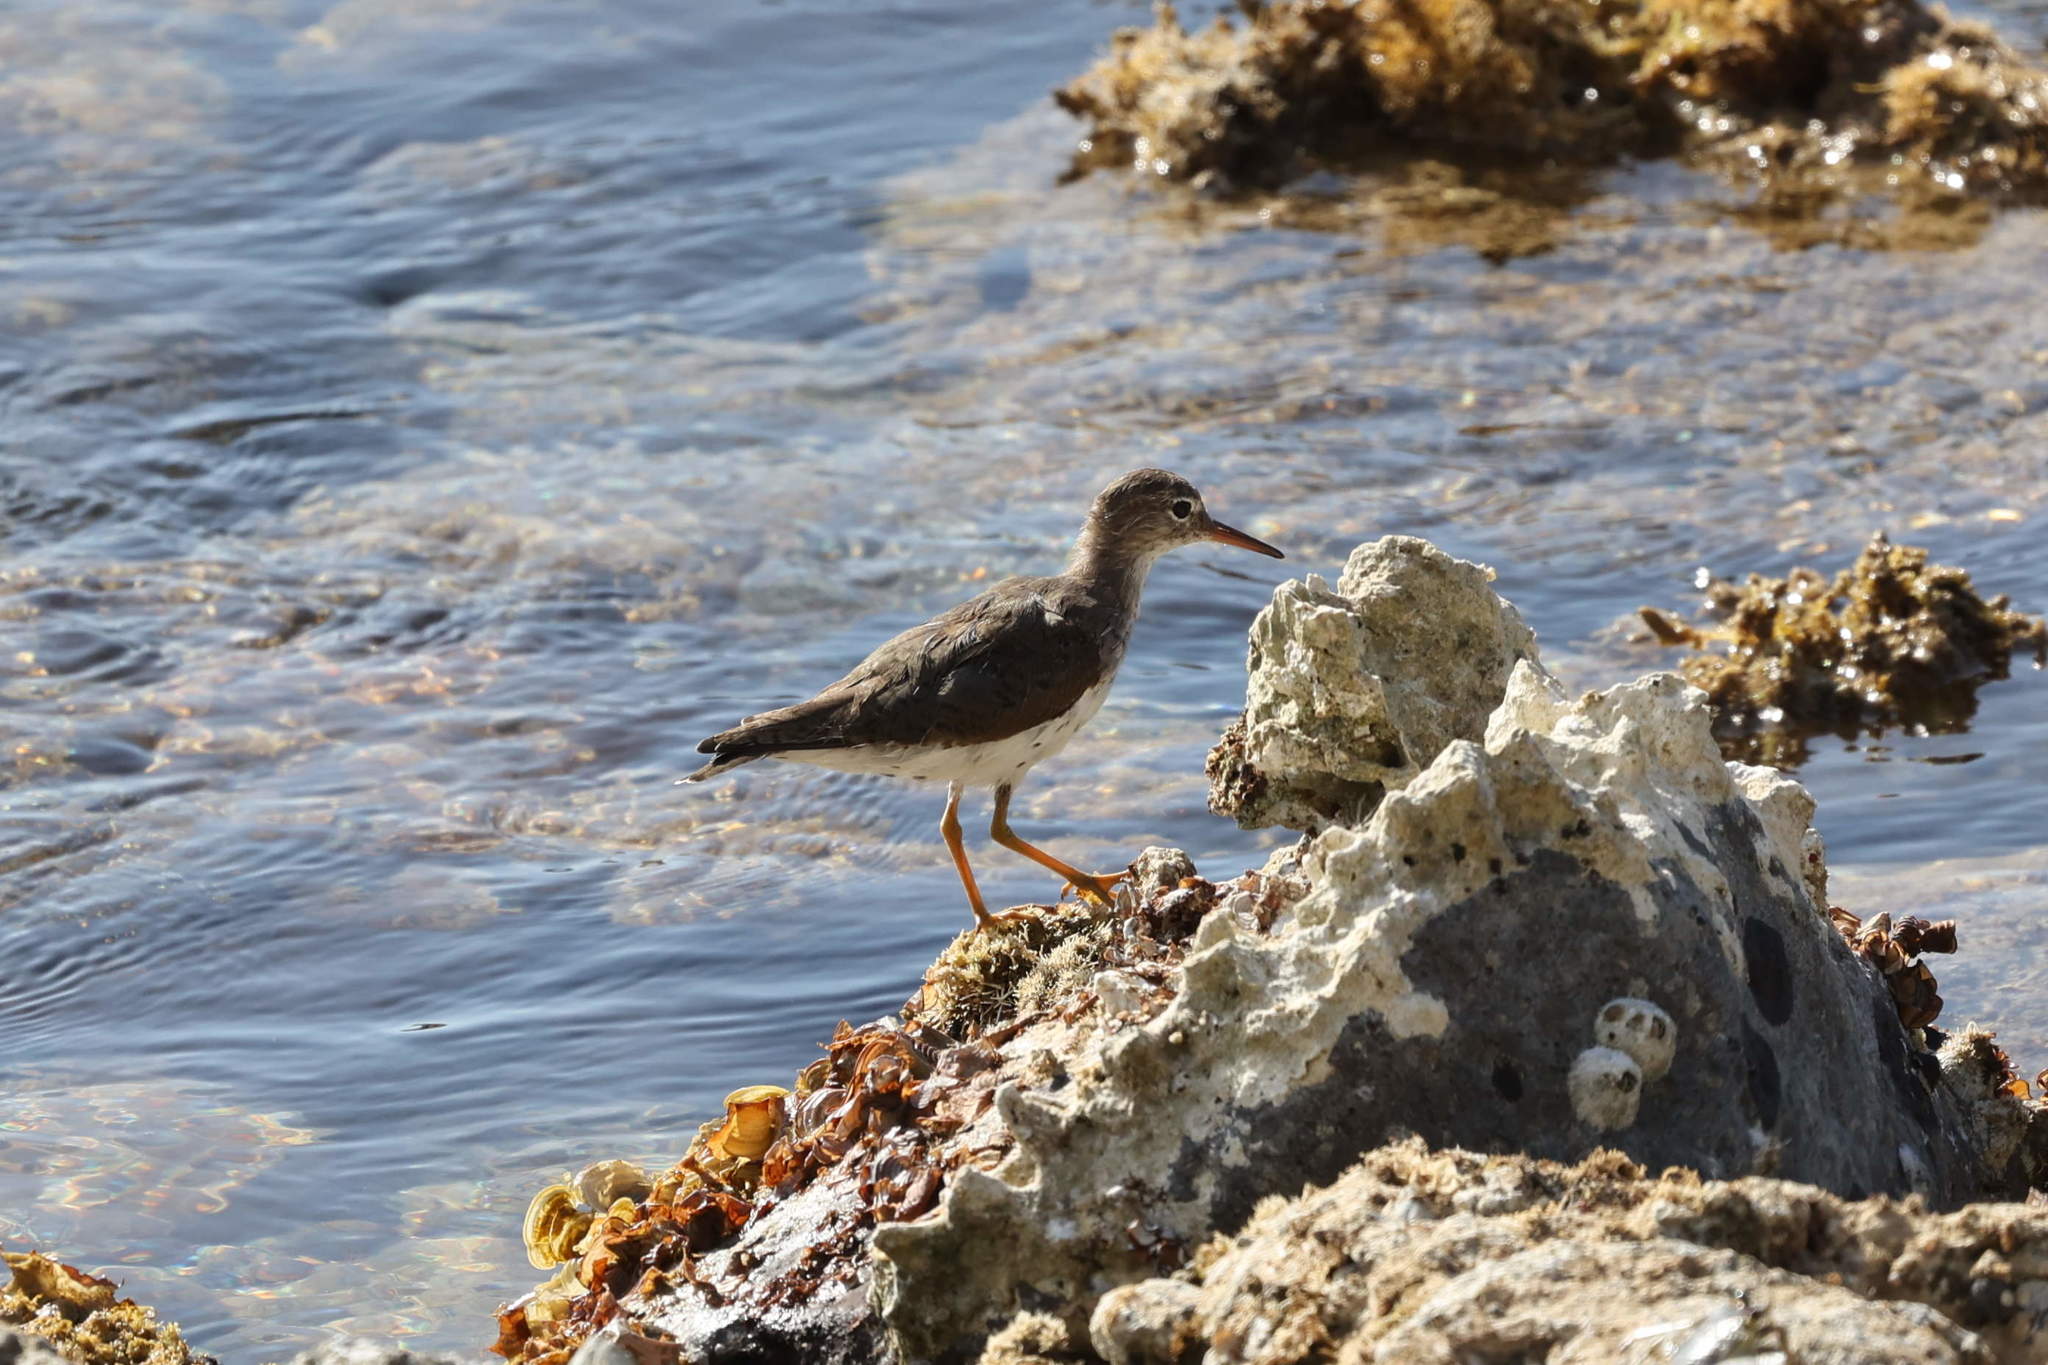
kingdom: Animalia
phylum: Chordata
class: Aves
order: Charadriiformes
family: Scolopacidae
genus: Actitis
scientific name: Actitis macularius
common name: Spotted sandpiper
